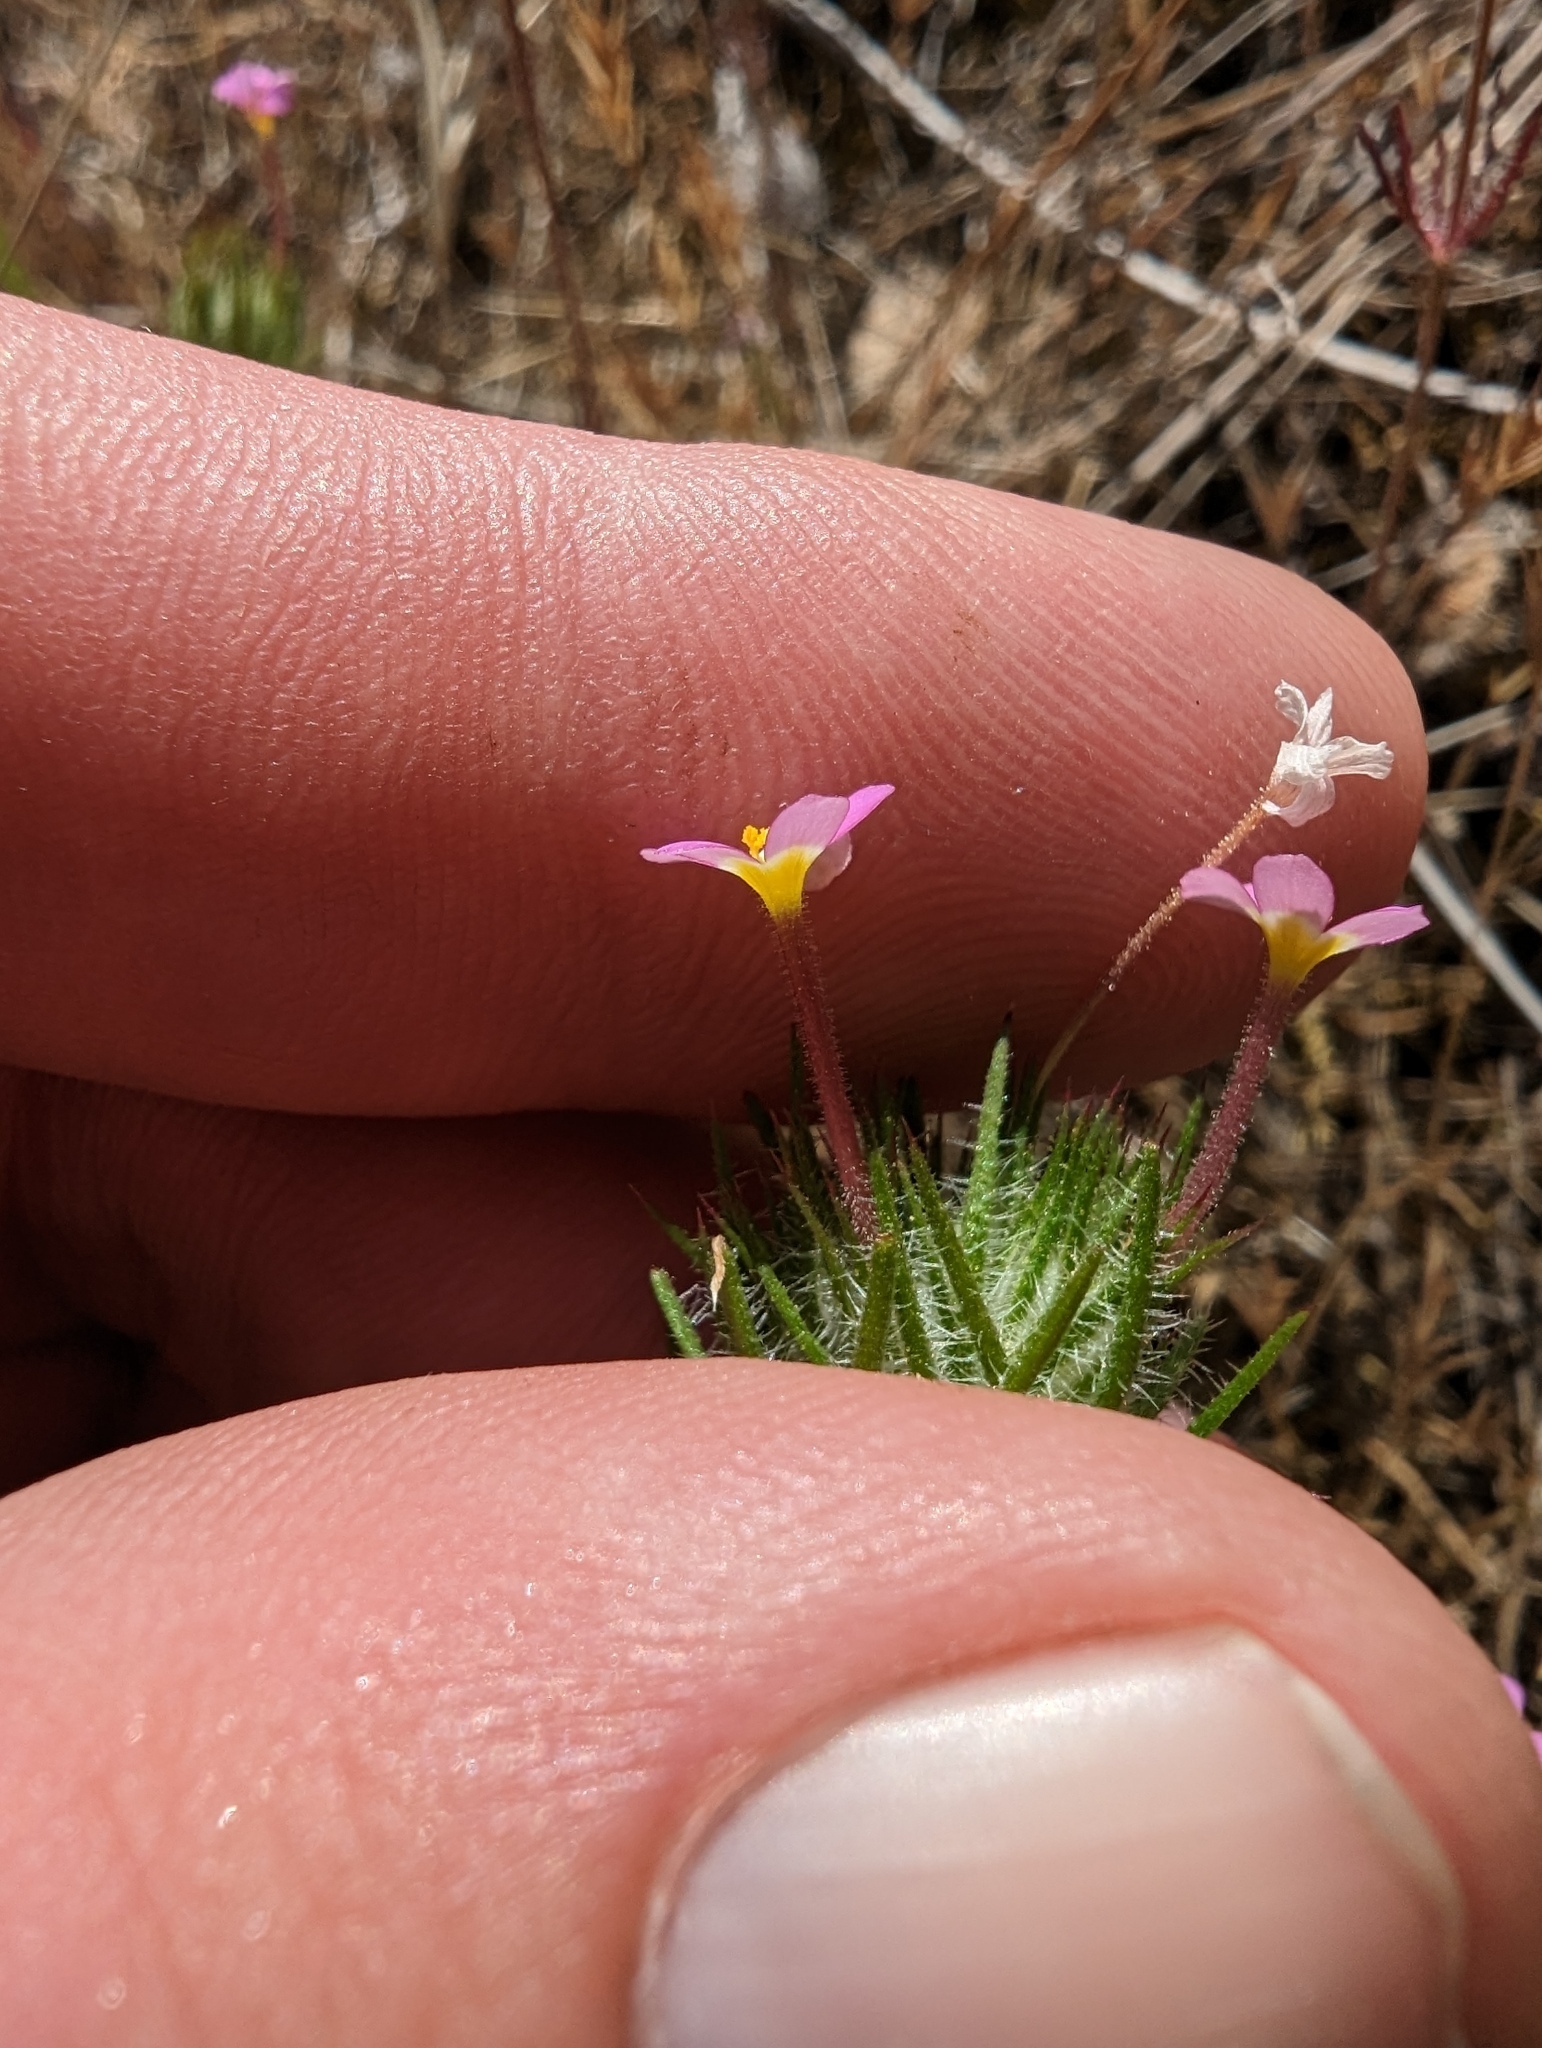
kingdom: Plantae
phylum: Tracheophyta
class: Magnoliopsida
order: Ericales
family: Polemoniaceae
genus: Leptosiphon
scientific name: Leptosiphon ciliatus
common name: Whiskerbrush
